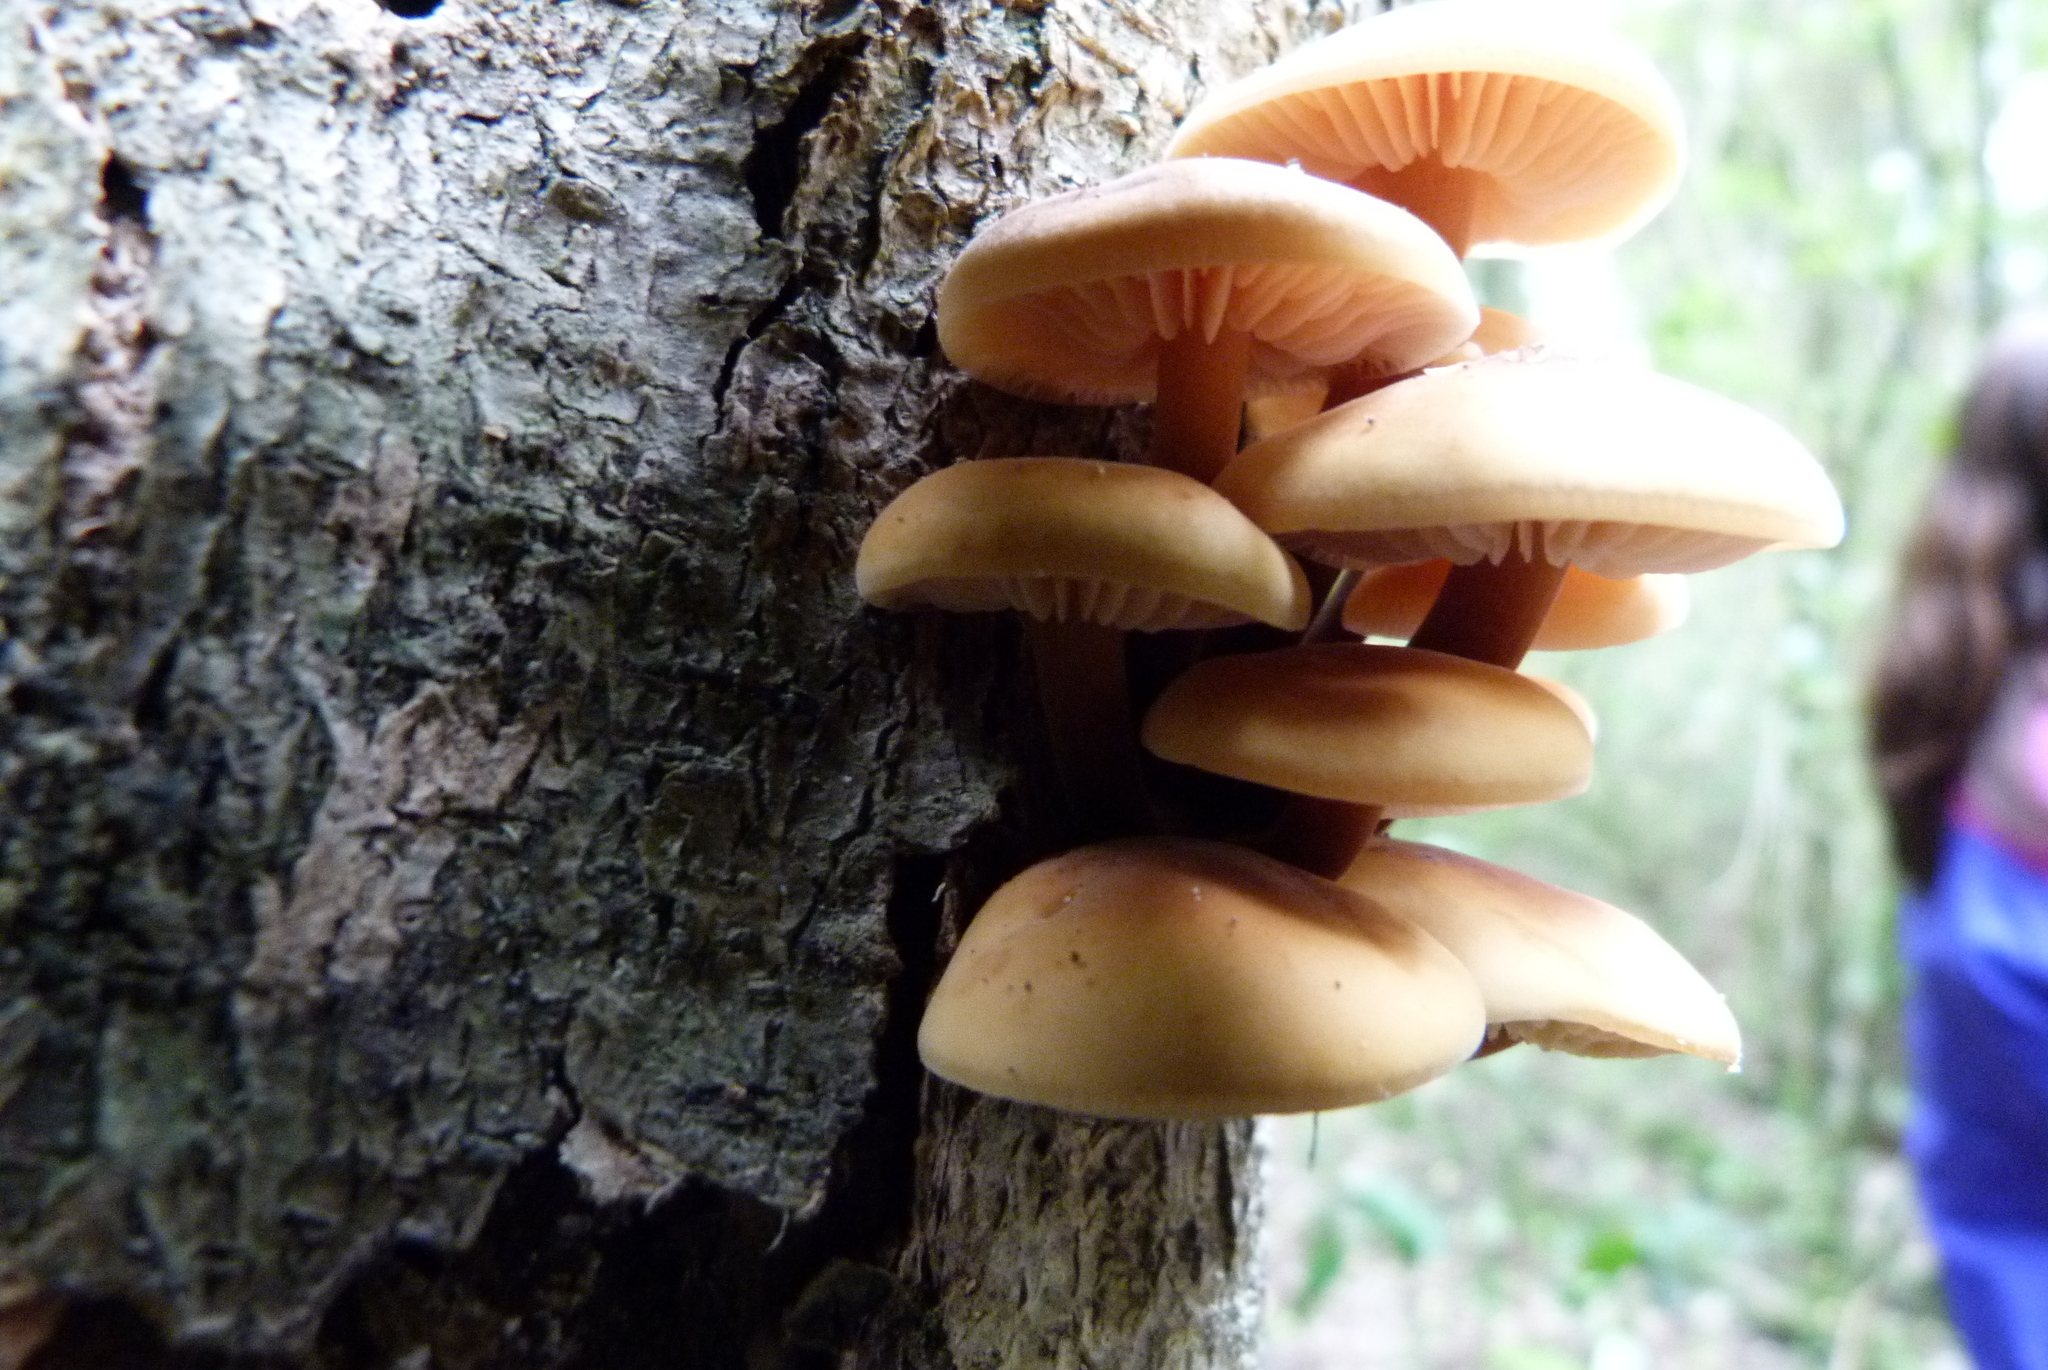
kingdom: Fungi
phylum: Basidiomycota
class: Agaricomycetes
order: Agaricales
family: Physalacriaceae
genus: Flammulina
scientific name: Flammulina velutipes
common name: Velvet shank
